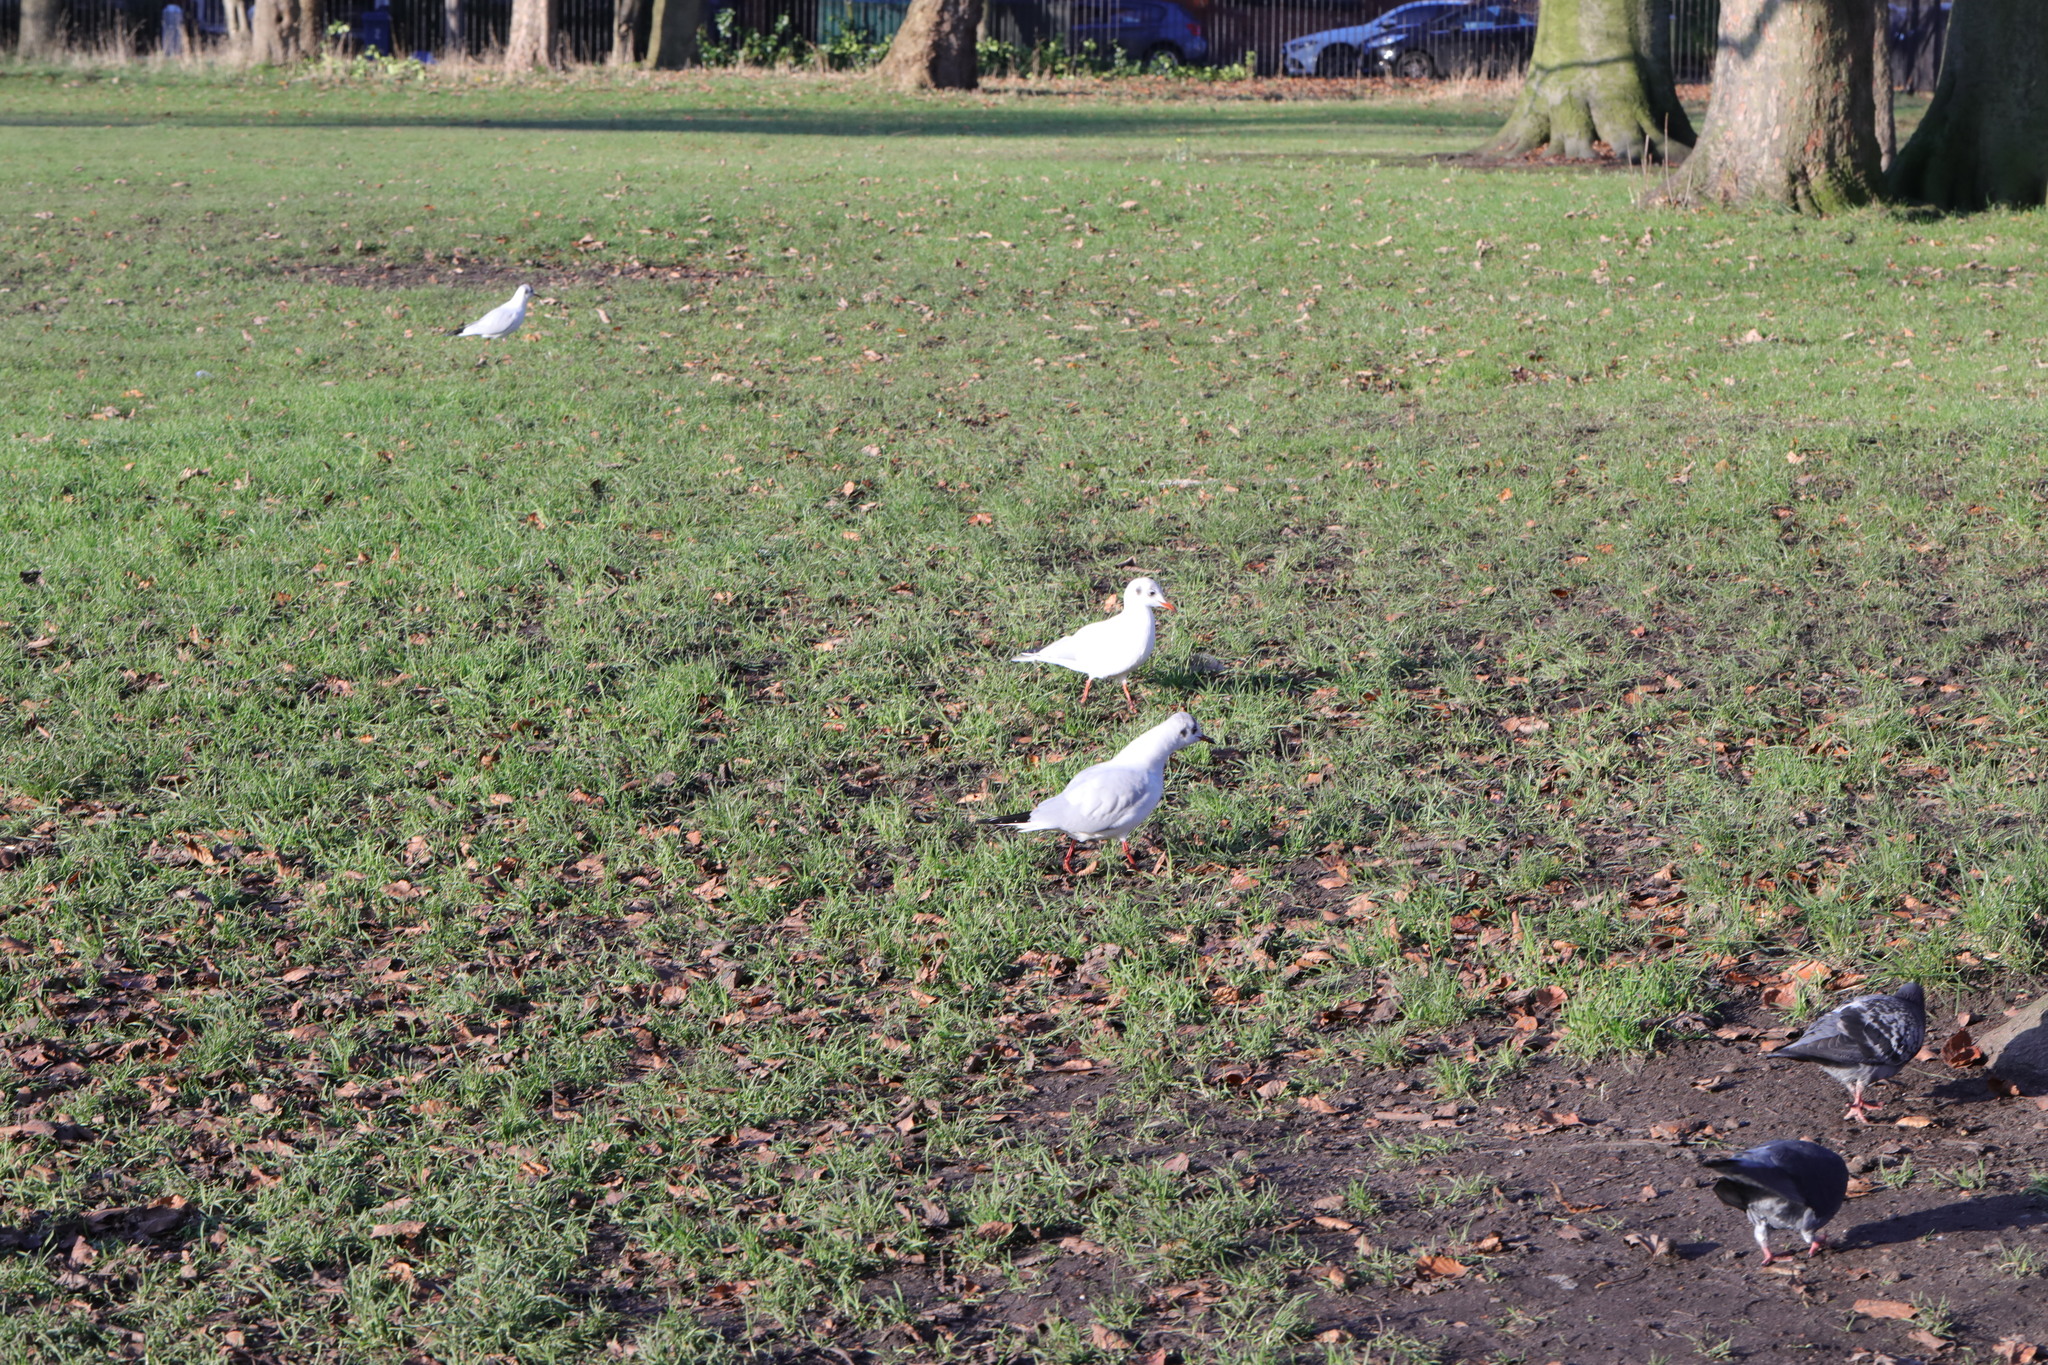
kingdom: Animalia
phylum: Chordata
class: Aves
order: Charadriiformes
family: Laridae
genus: Chroicocephalus
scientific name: Chroicocephalus ridibundus
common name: Black-headed gull
